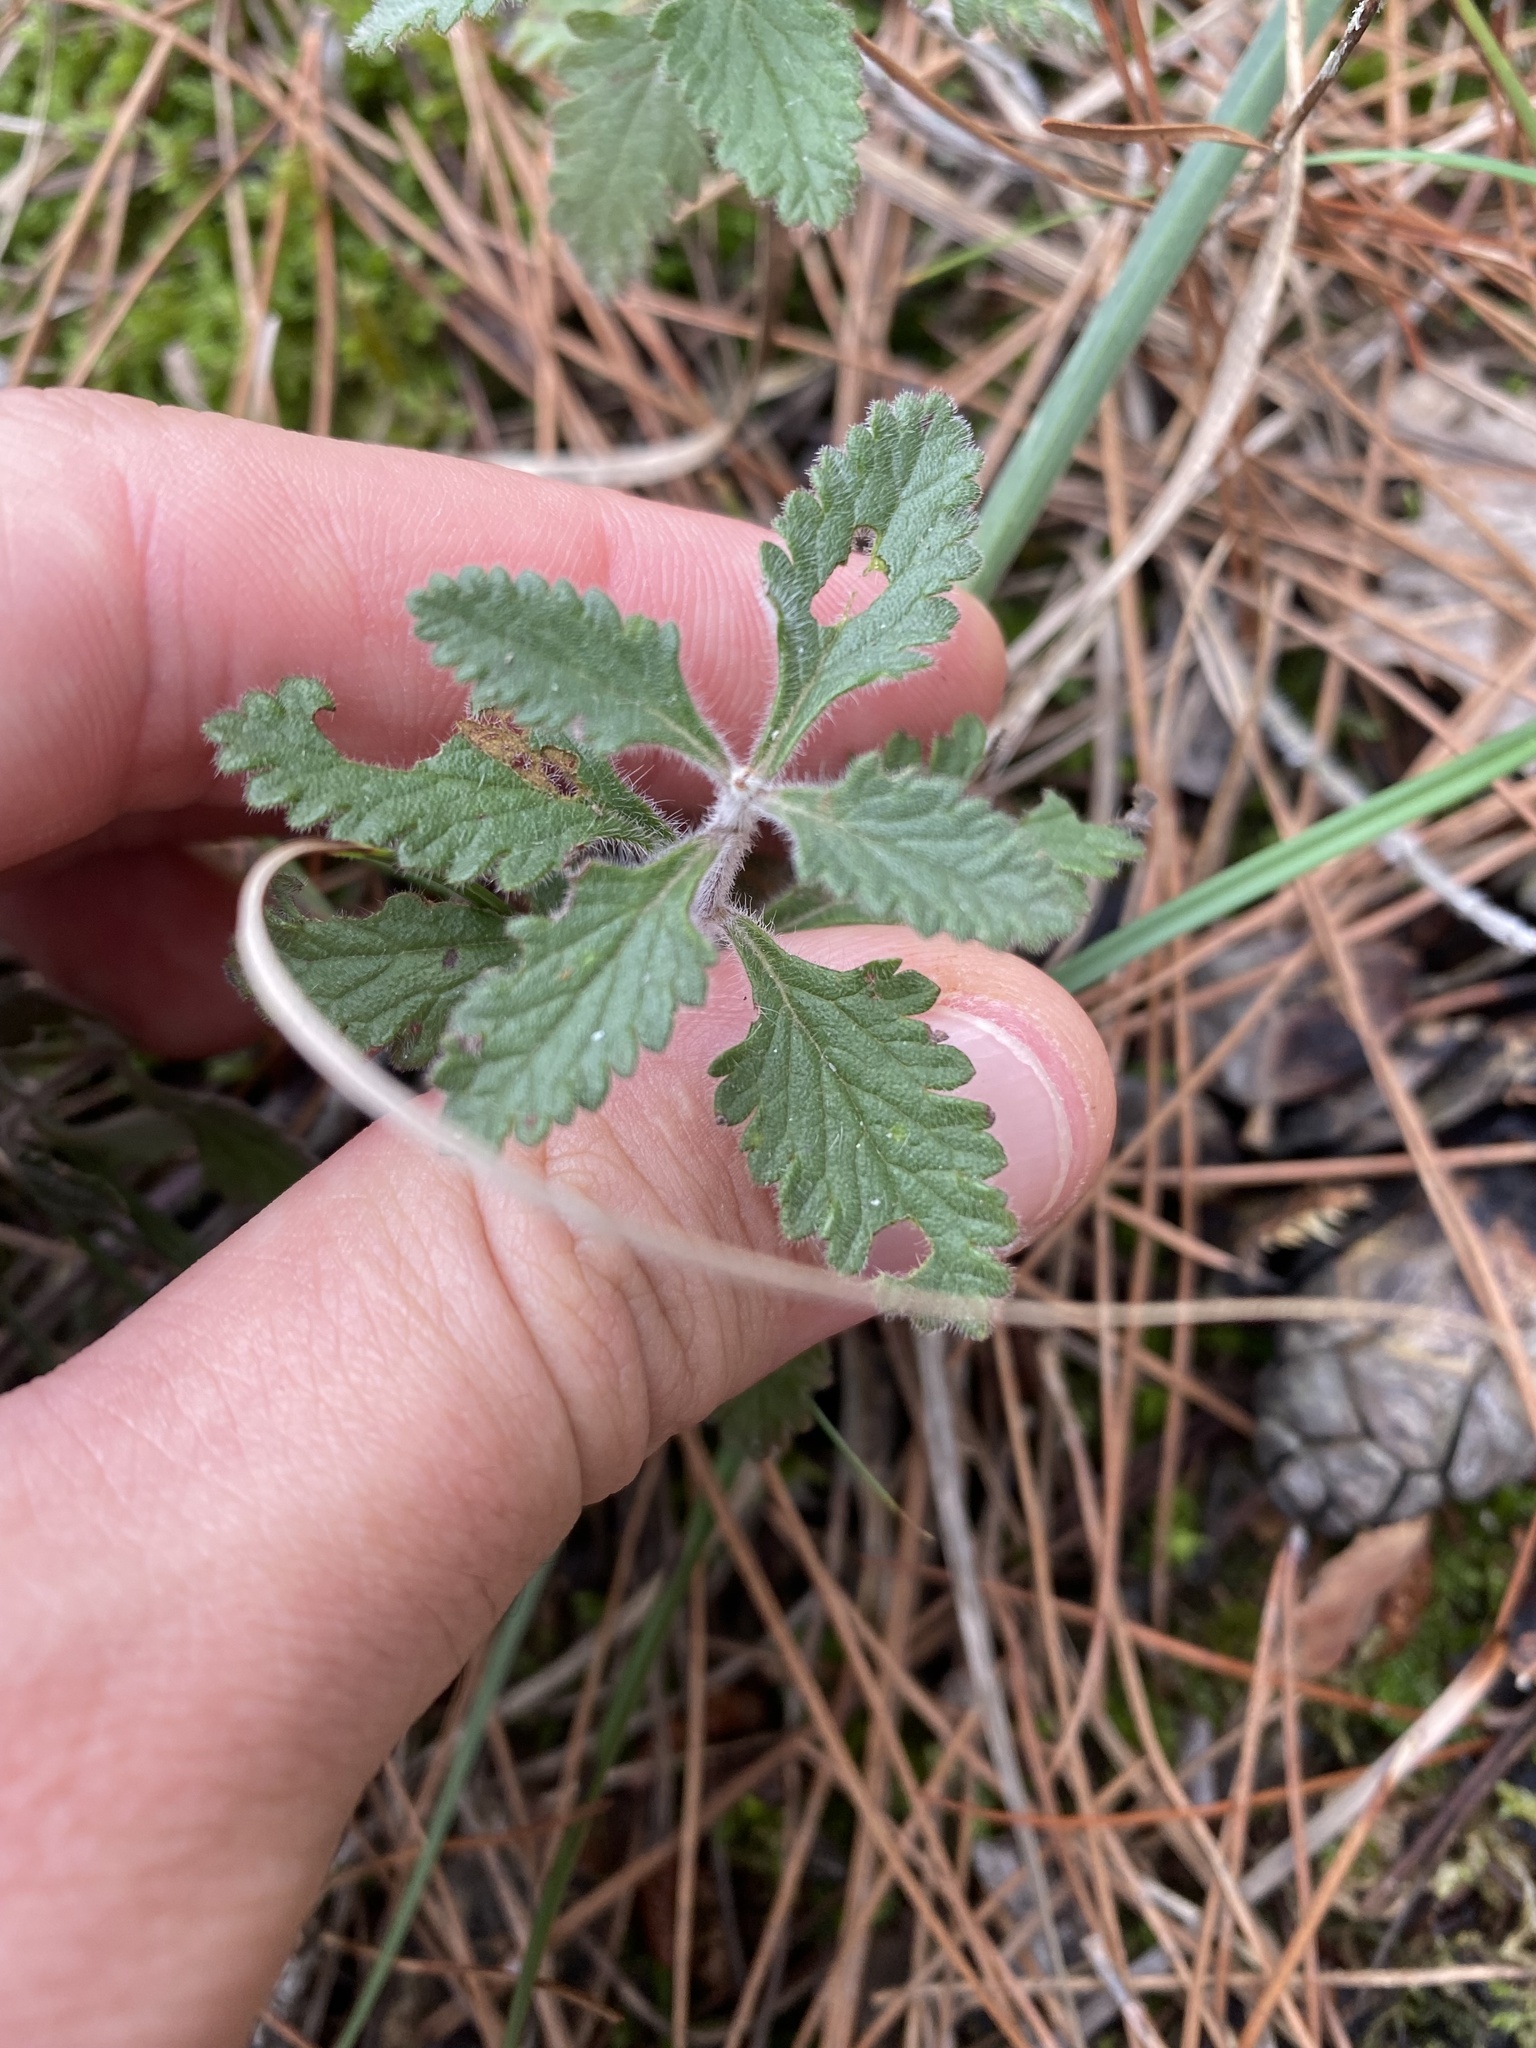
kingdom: Plantae
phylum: Tracheophyta
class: Magnoliopsida
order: Lamiales
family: Lamiaceae
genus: Teucrium
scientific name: Teucrium chamaedrys
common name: Wall germander
